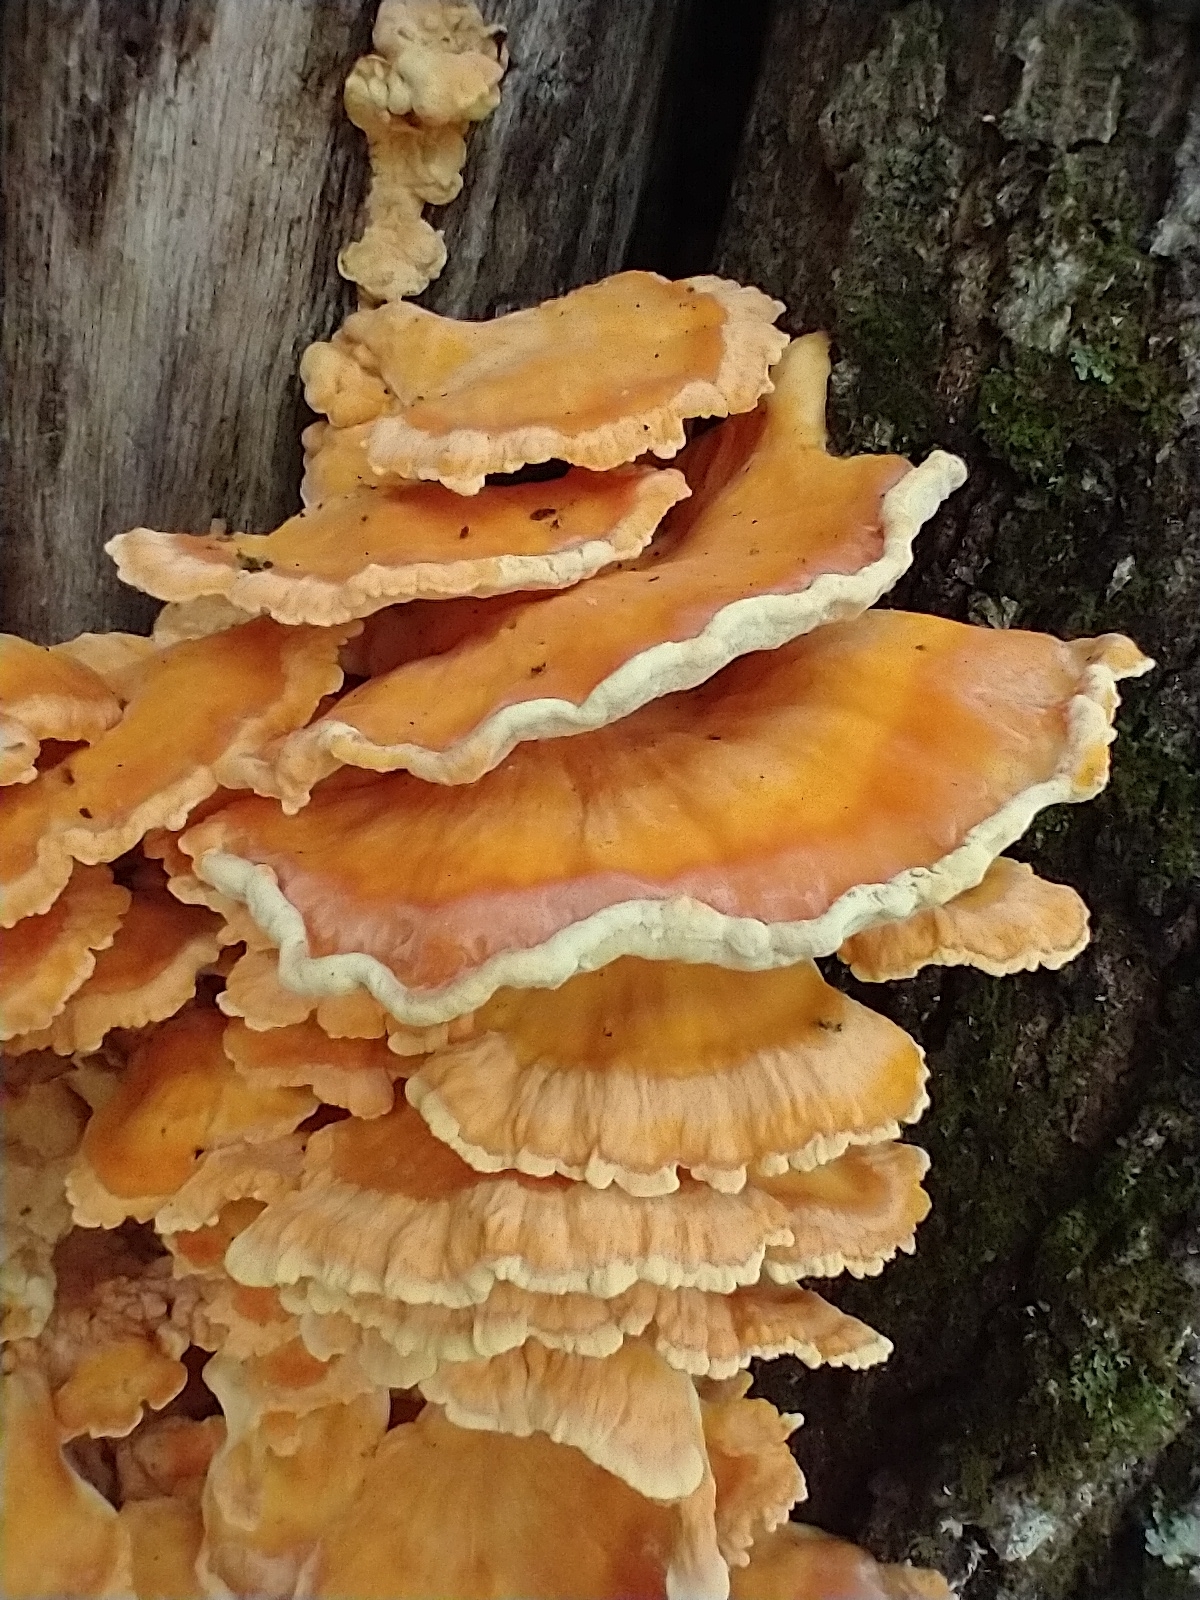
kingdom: Fungi
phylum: Basidiomycota
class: Agaricomycetes
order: Polyporales
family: Laetiporaceae
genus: Laetiporus
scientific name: Laetiporus sulphureus
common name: Chicken of the woods
